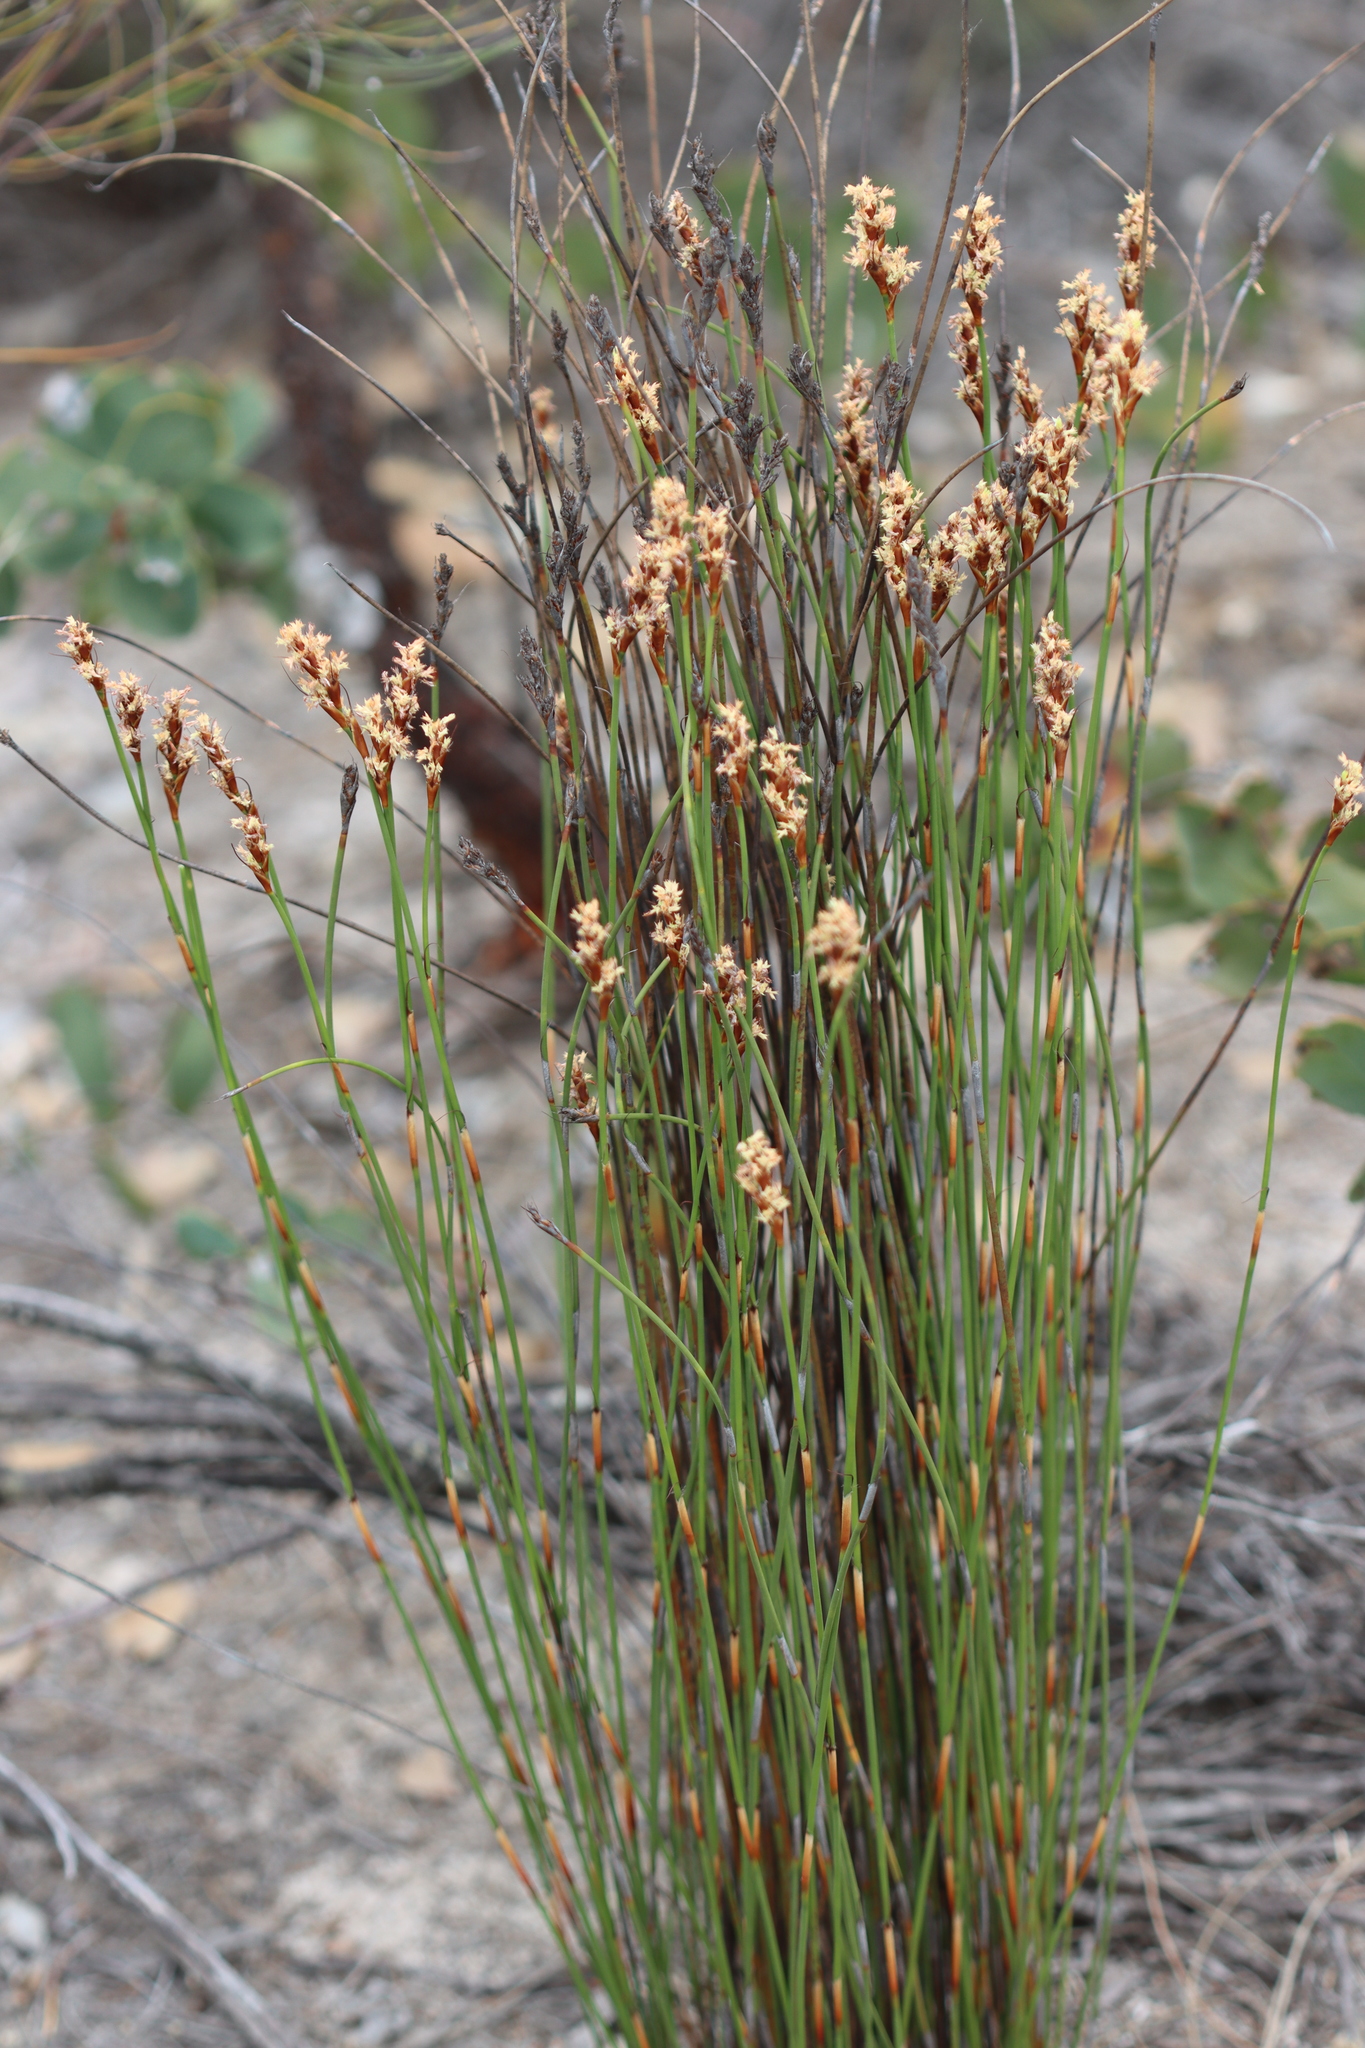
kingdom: Plantae
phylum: Tracheophyta
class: Liliopsida
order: Poales
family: Restionaceae
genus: Lyginia
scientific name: Lyginia imberbis
